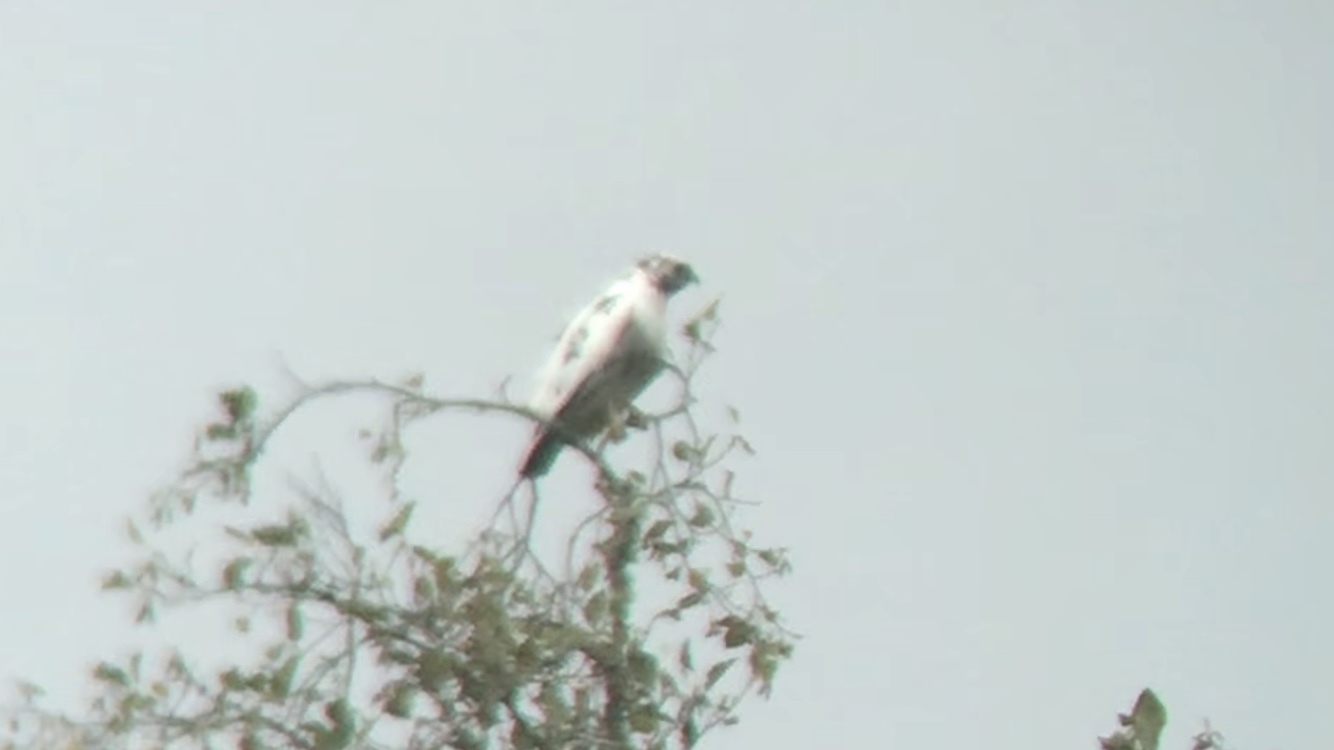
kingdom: Animalia
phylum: Chordata
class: Aves
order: Accipitriformes
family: Accipitridae
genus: Buteo
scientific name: Buteo jamaicensis
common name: Red-tailed hawk
